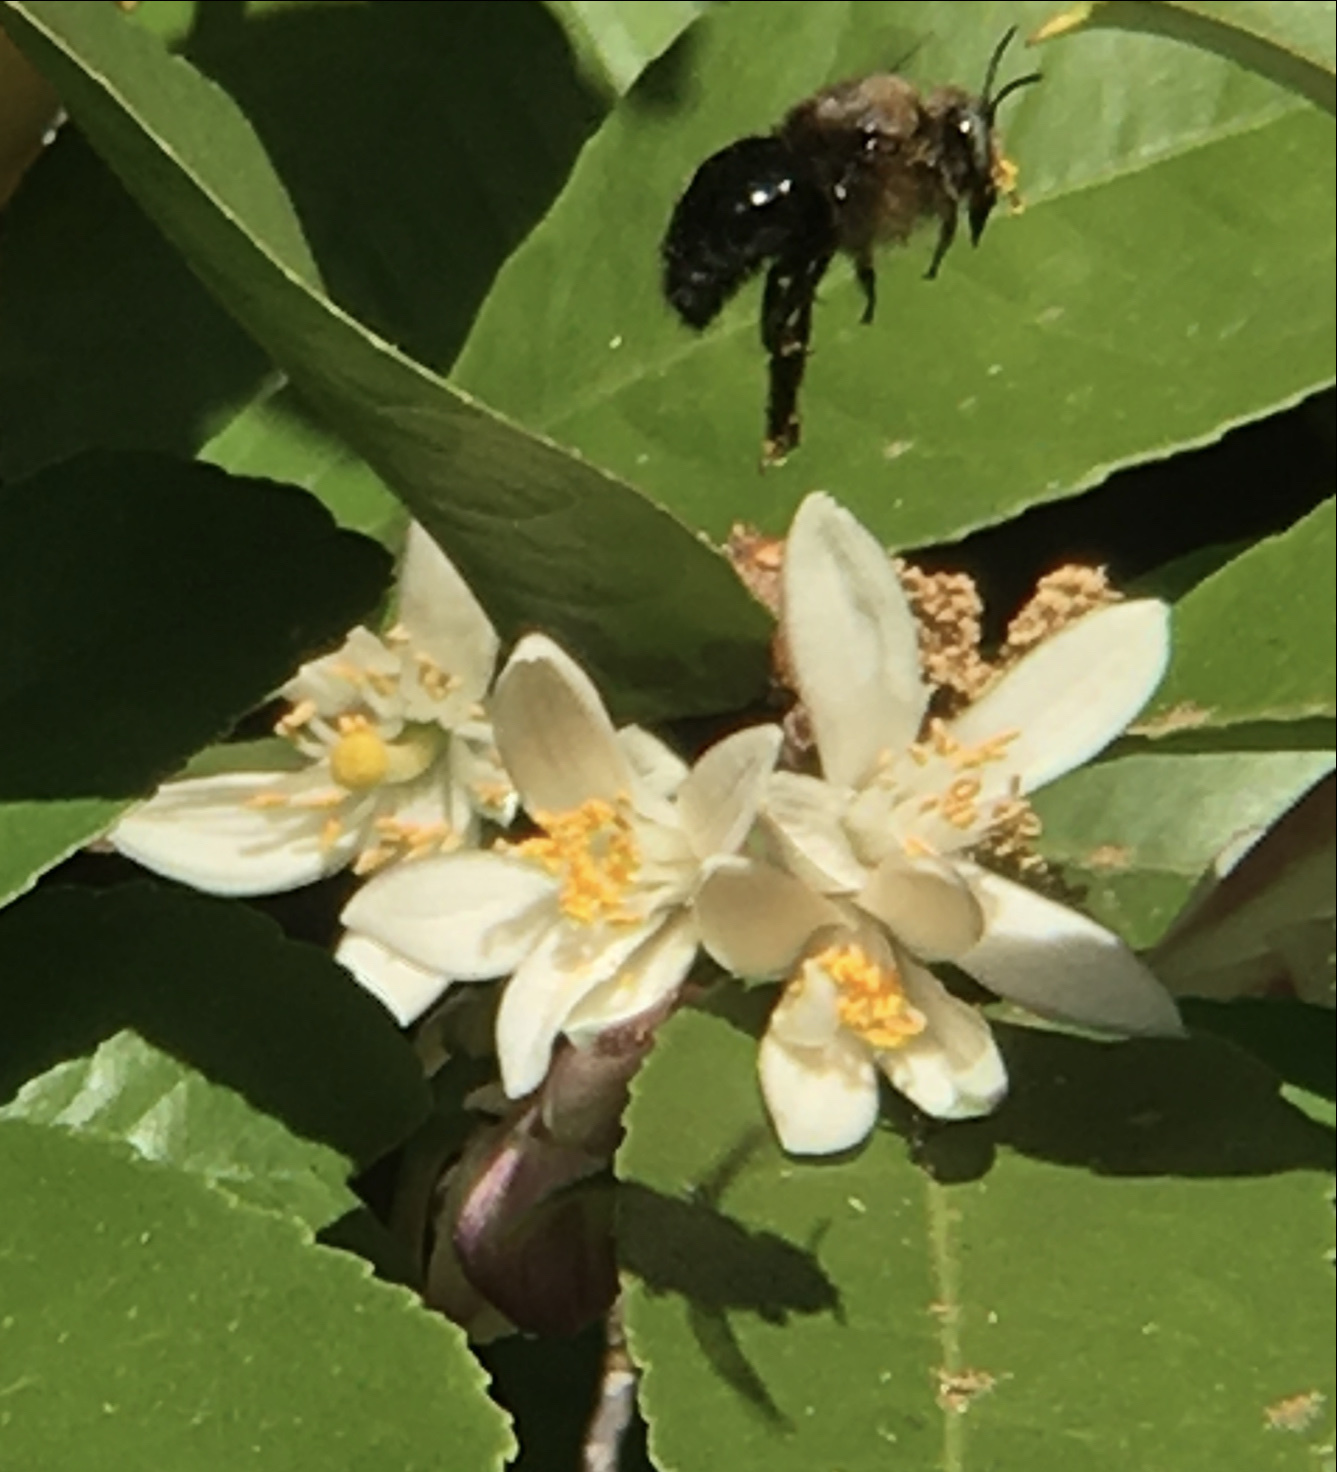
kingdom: Animalia
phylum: Arthropoda
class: Insecta
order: Hymenoptera
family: Apidae
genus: Xylocopa
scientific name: Xylocopa tabaniformis
